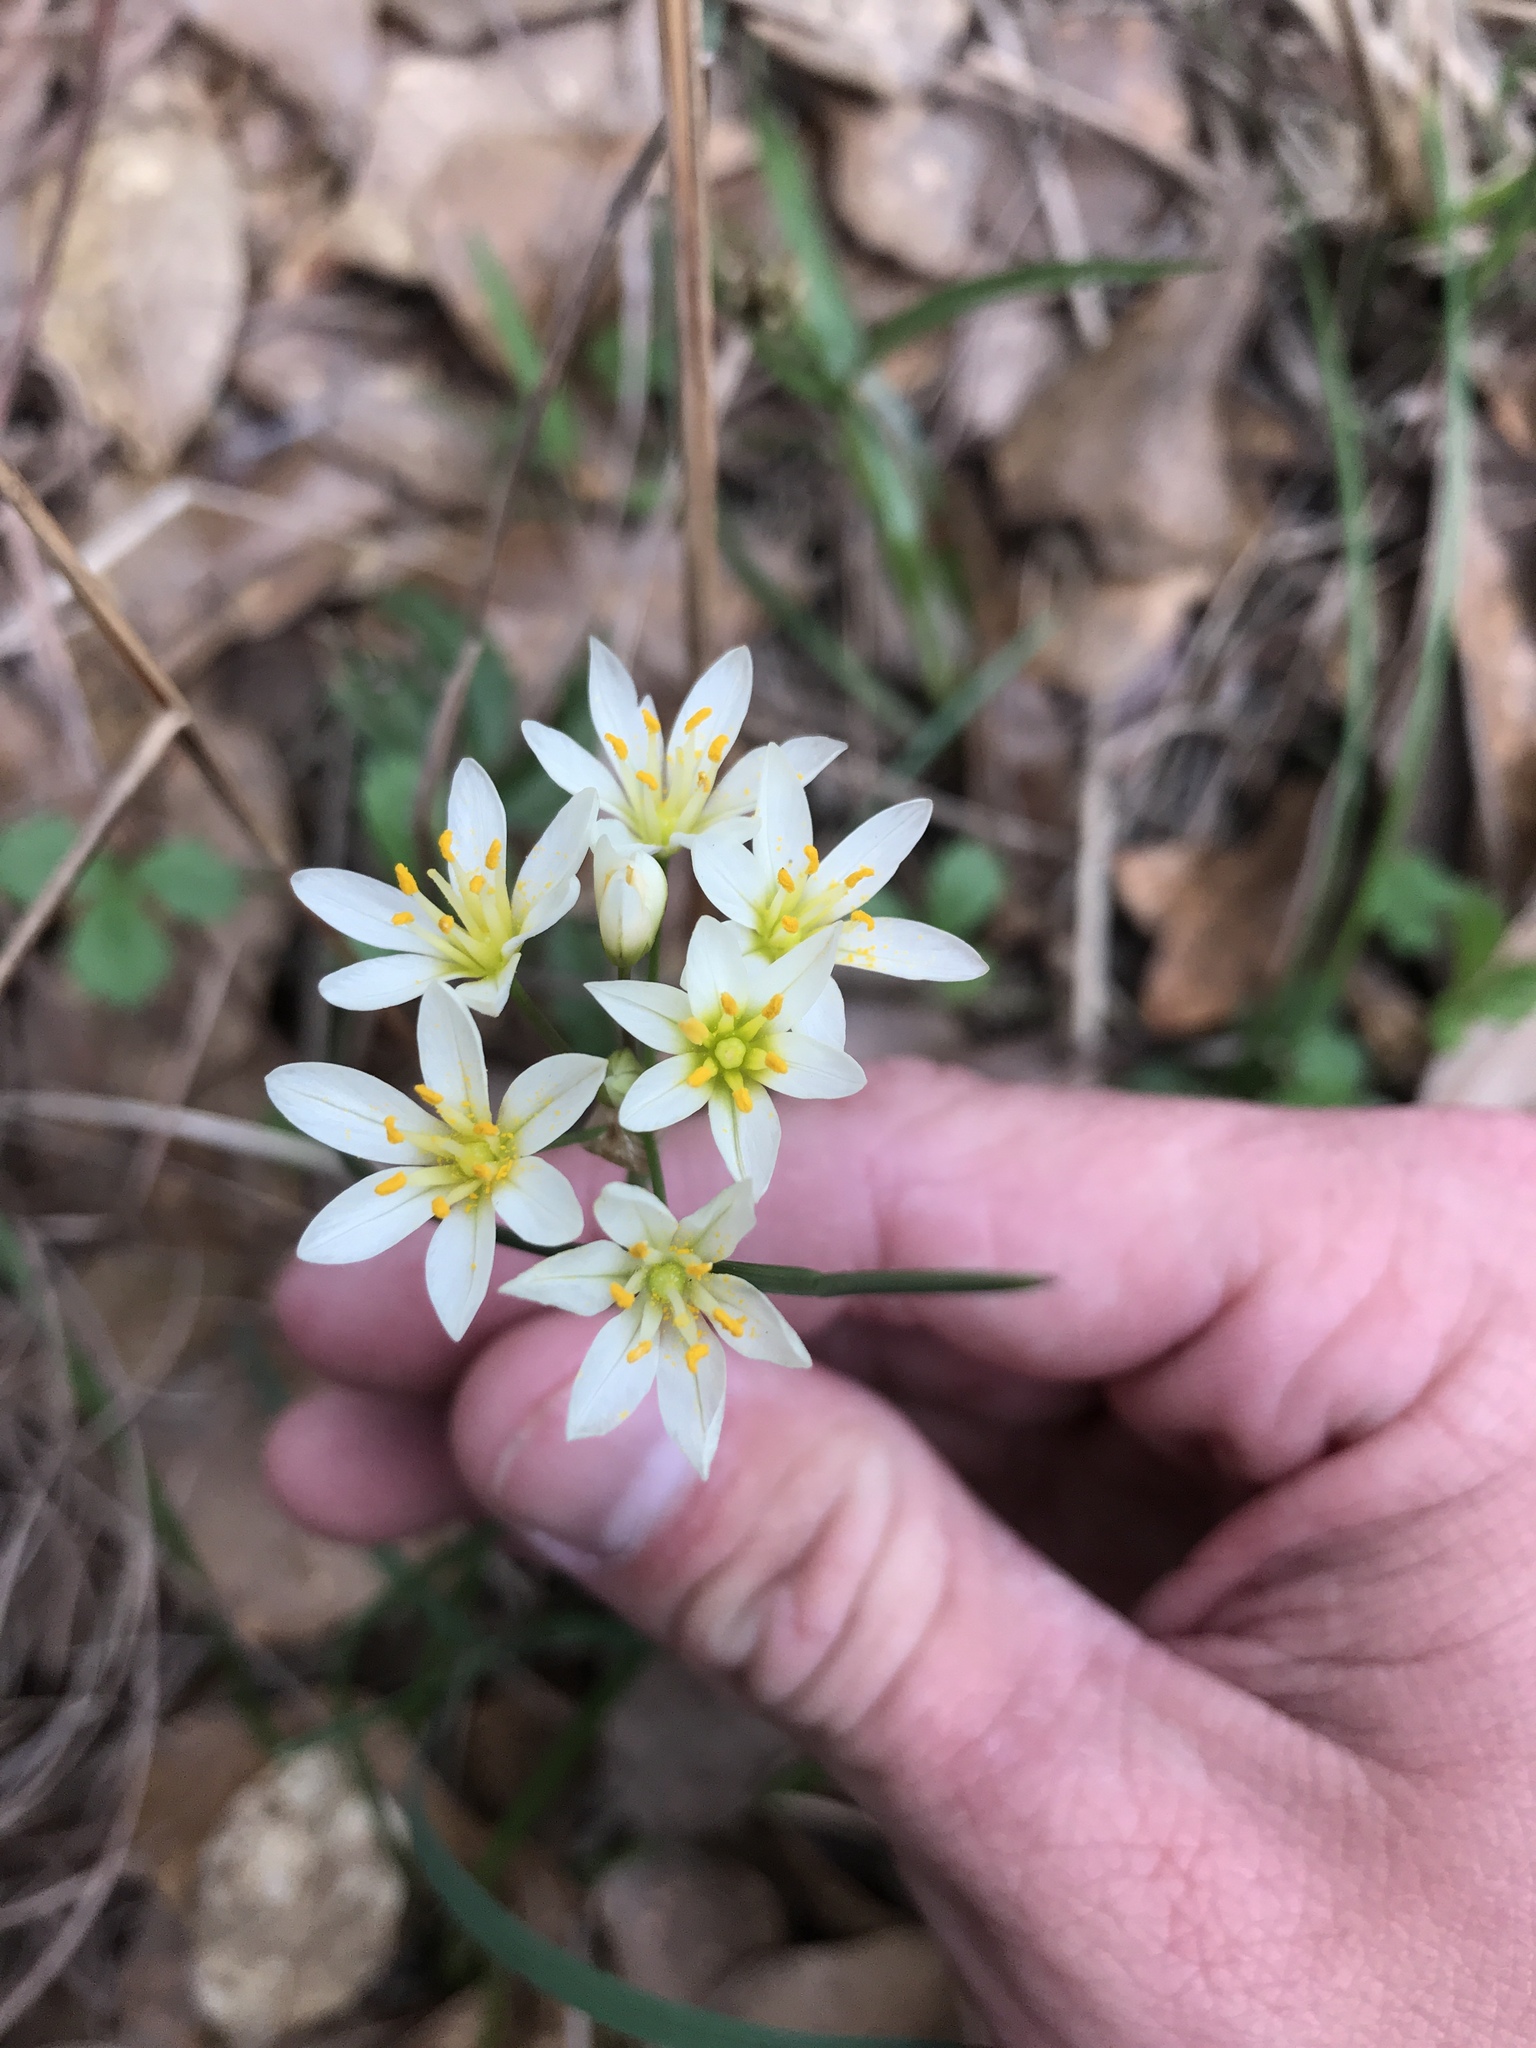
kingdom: Plantae
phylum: Tracheophyta
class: Liliopsida
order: Asparagales
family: Amaryllidaceae
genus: Nothoscordum
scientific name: Nothoscordum bivalve
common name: Crow-poison
